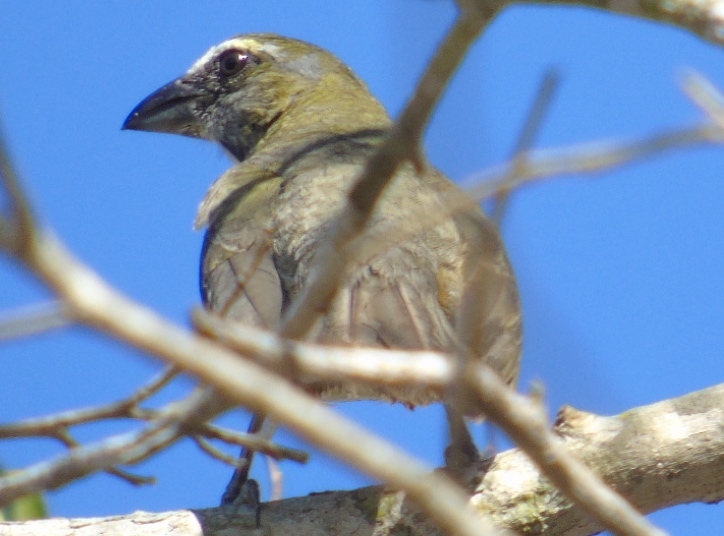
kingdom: Animalia
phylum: Chordata
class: Aves
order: Passeriformes
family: Thraupidae
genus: Saltator
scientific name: Saltator grandis
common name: Cinnamon-bellied saltator
